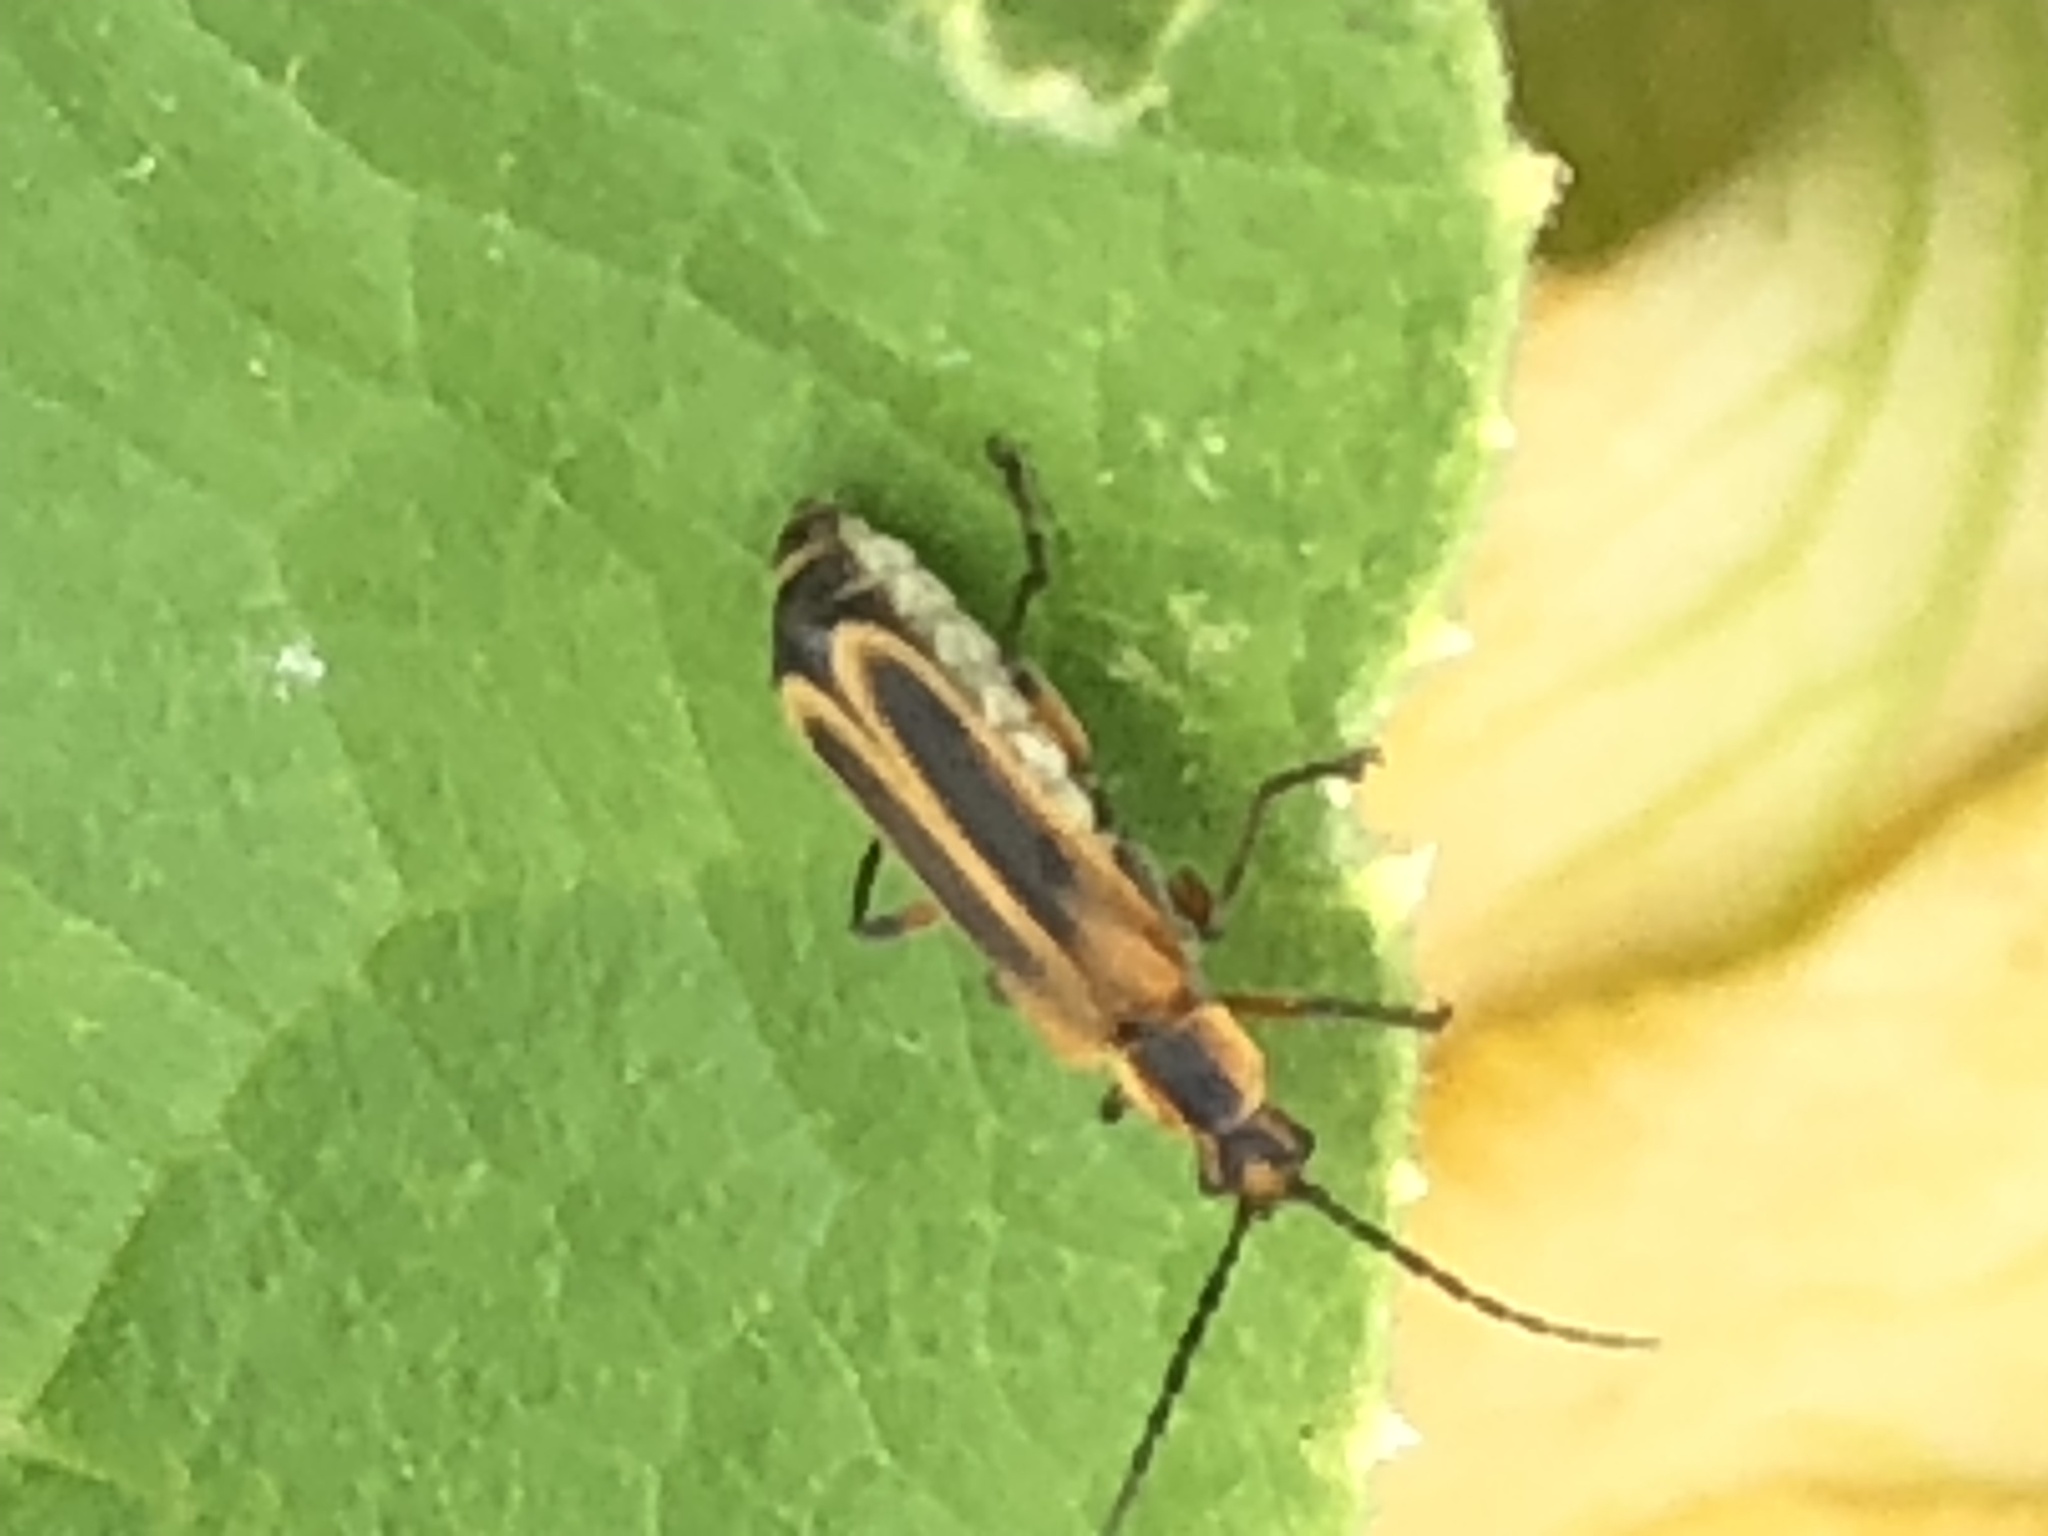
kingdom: Animalia
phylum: Arthropoda
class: Insecta
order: Coleoptera
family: Cantharidae
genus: Chauliognathus
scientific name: Chauliognathus marginatus
